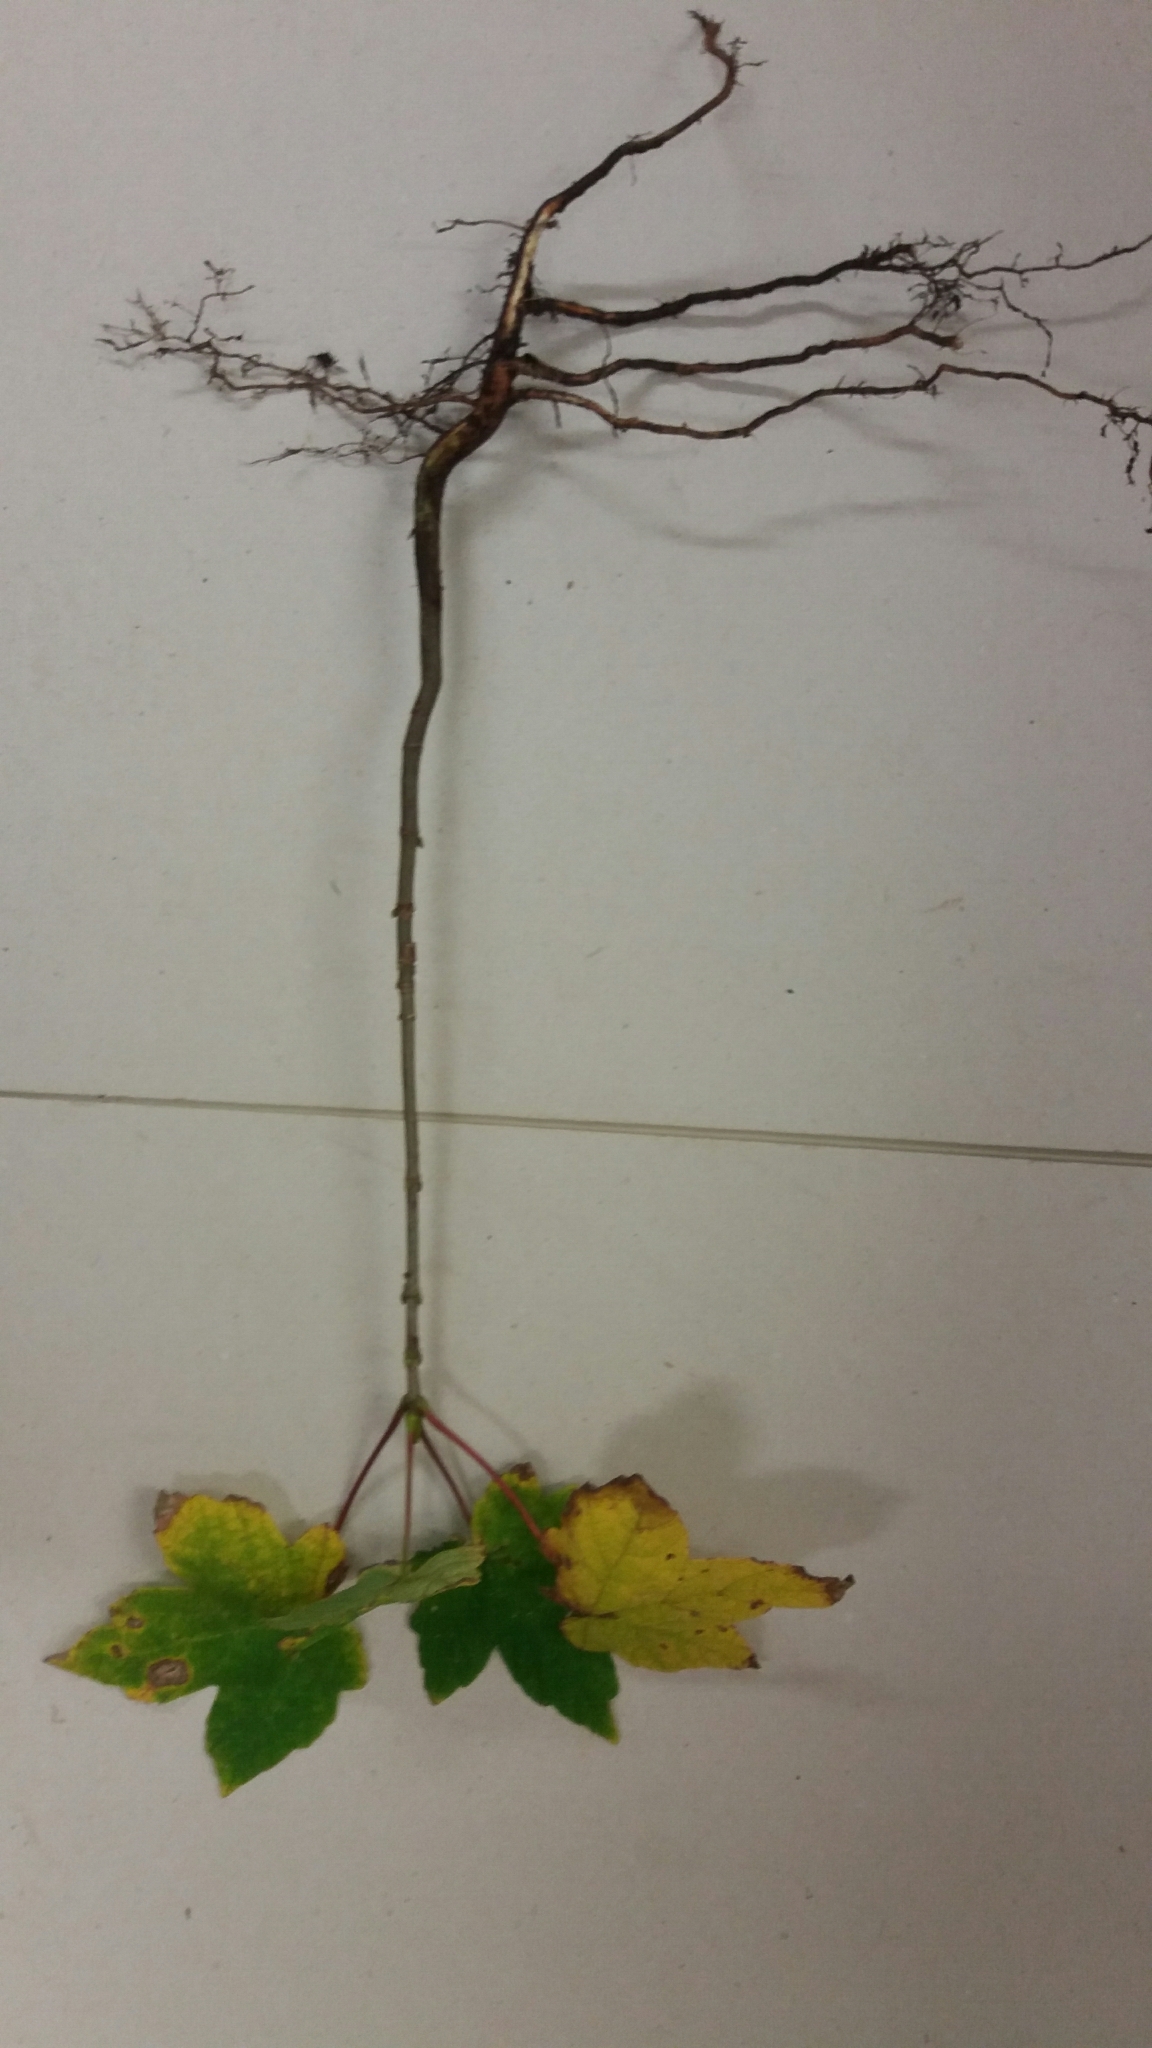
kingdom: Plantae
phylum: Tracheophyta
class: Magnoliopsida
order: Sapindales
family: Sapindaceae
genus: Acer
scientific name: Acer pseudoplatanus
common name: Sycamore
